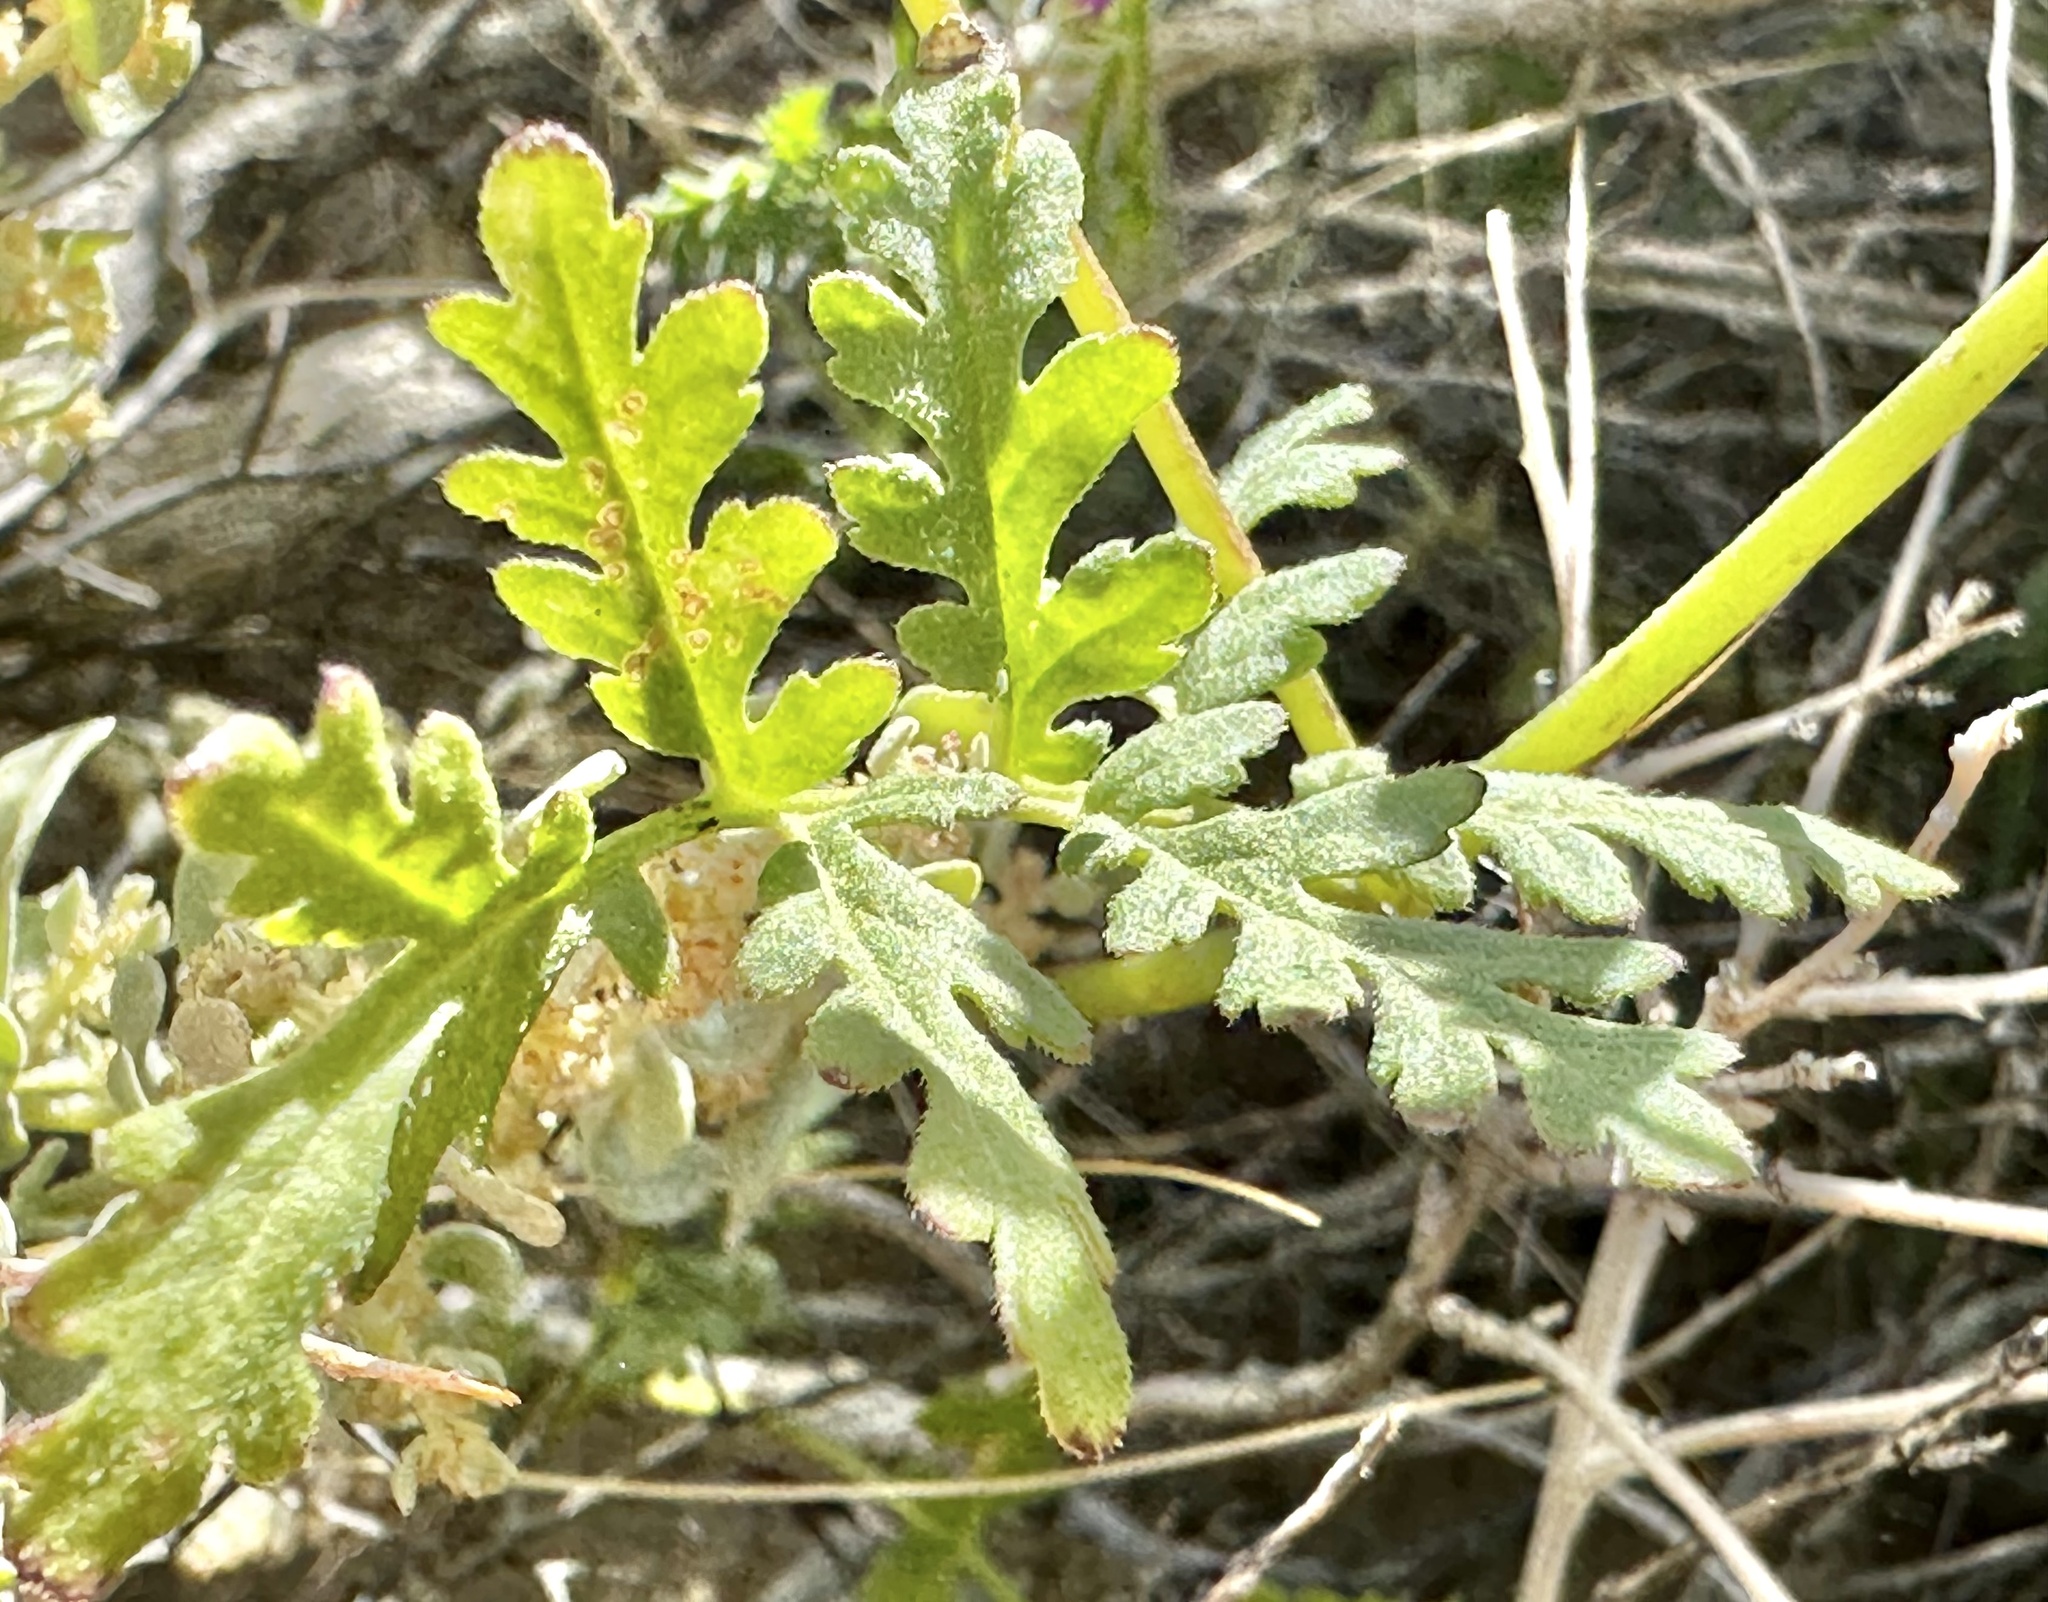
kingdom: Plantae
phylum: Tracheophyta
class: Magnoliopsida
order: Boraginales
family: Hydrophyllaceae
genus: Phacelia
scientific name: Phacelia tanacetifolia
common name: Phacelia
